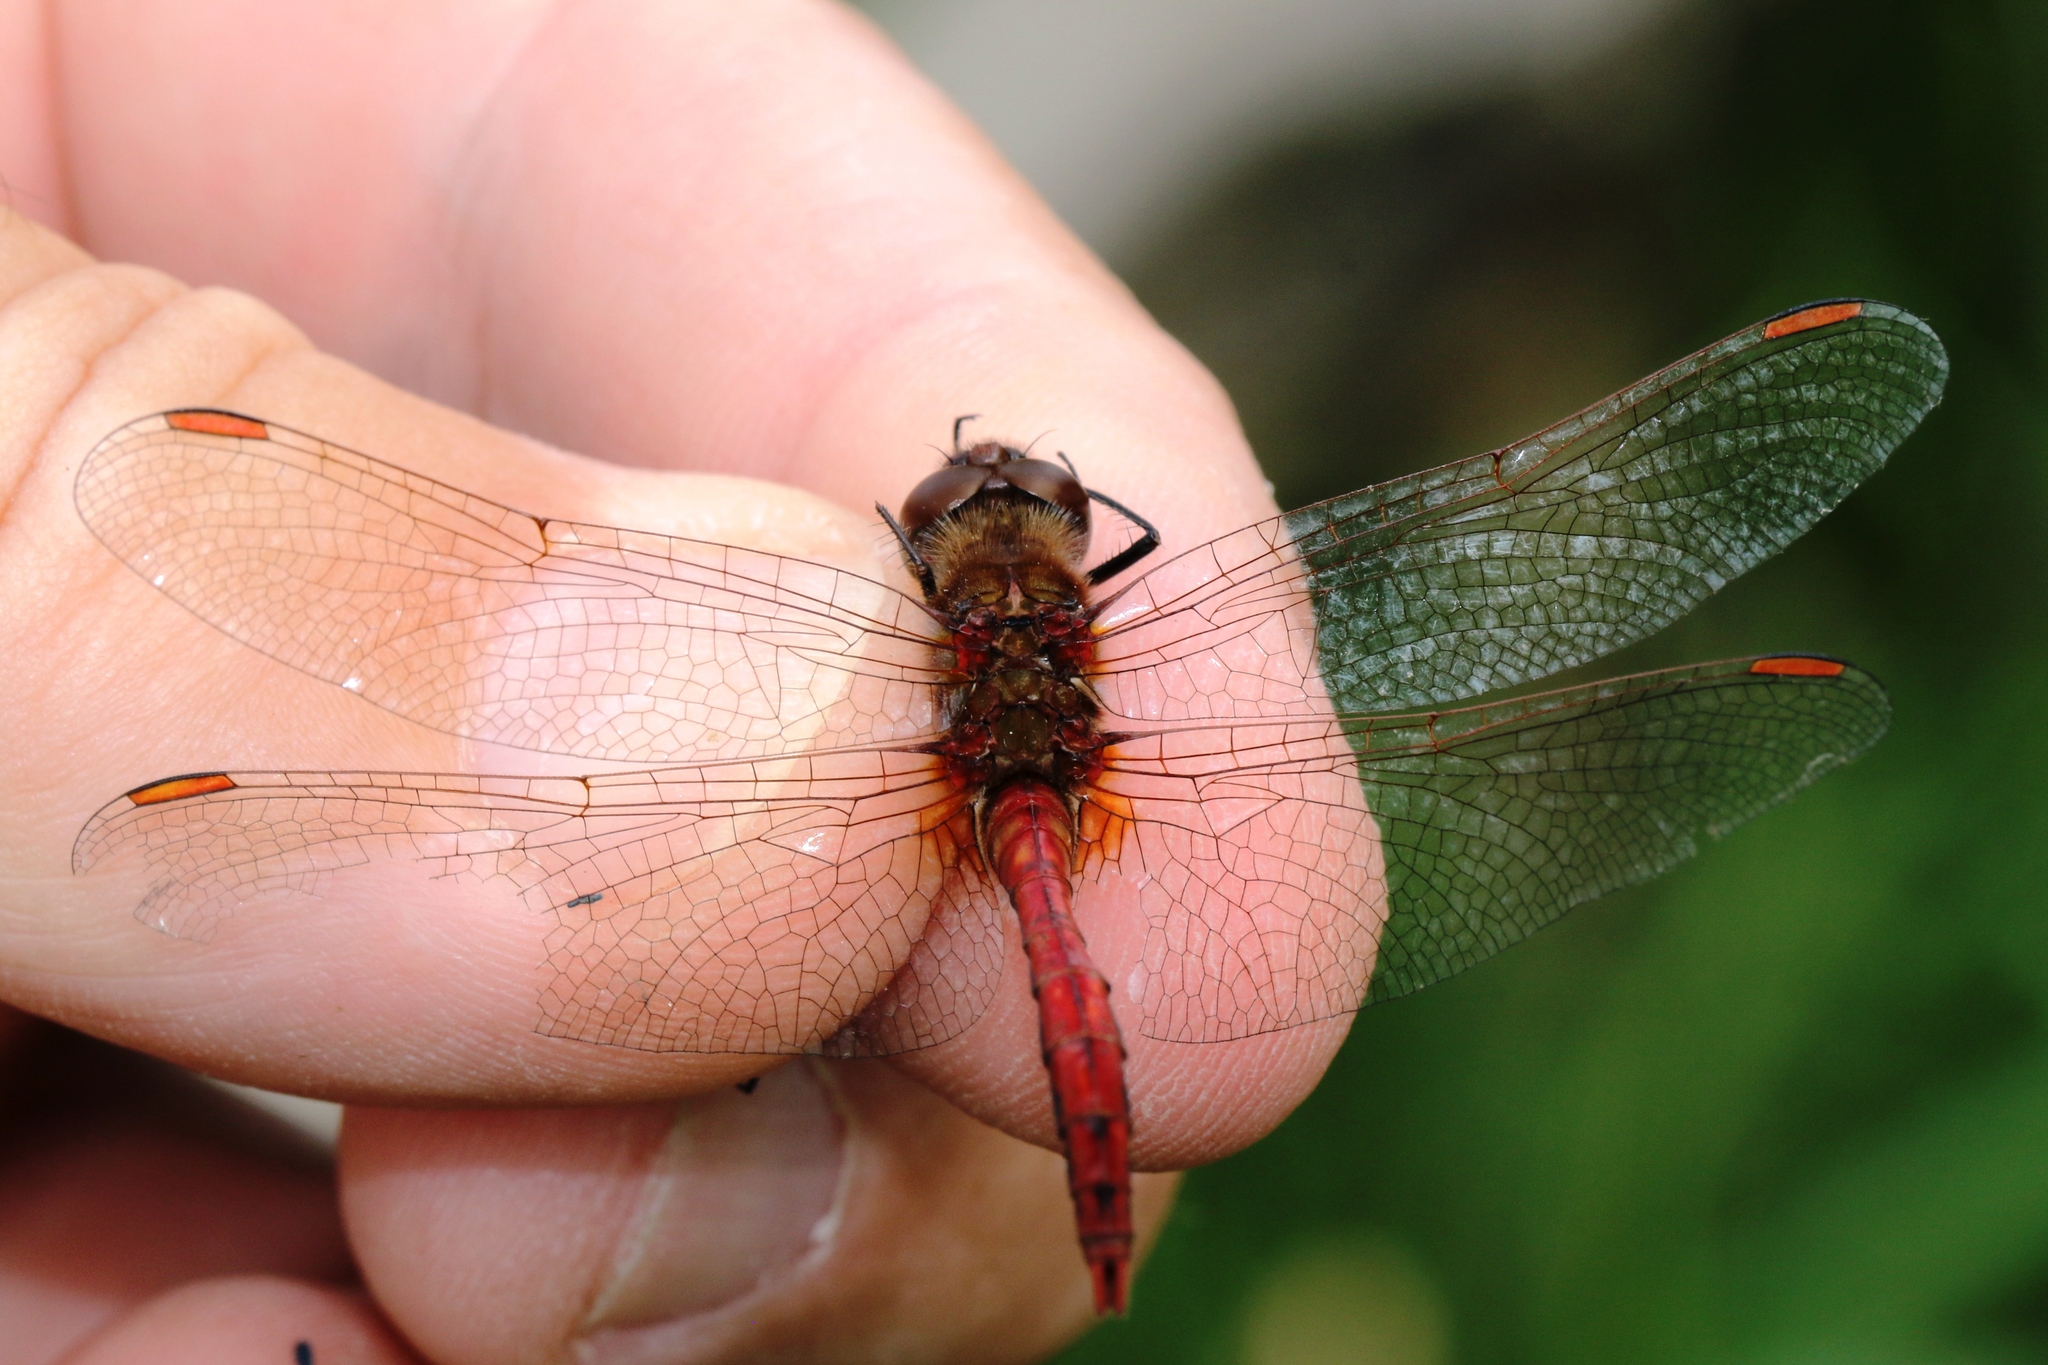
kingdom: Animalia
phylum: Arthropoda
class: Insecta
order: Odonata
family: Libellulidae
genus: Sympetrum
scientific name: Sympetrum costiferum
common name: Saffron-winged meadowhawk
